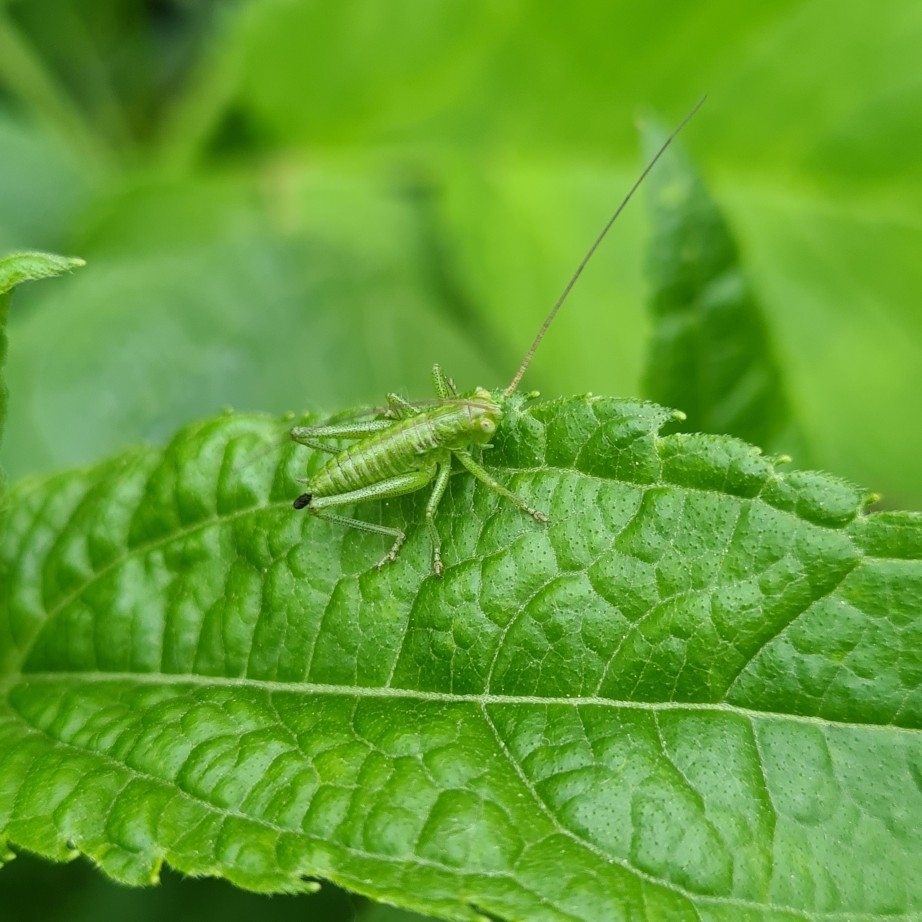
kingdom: Animalia
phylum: Arthropoda
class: Insecta
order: Orthoptera
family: Tettigoniidae
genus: Tettigonia
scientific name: Tettigonia cantans
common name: Upland green bush-cricket
